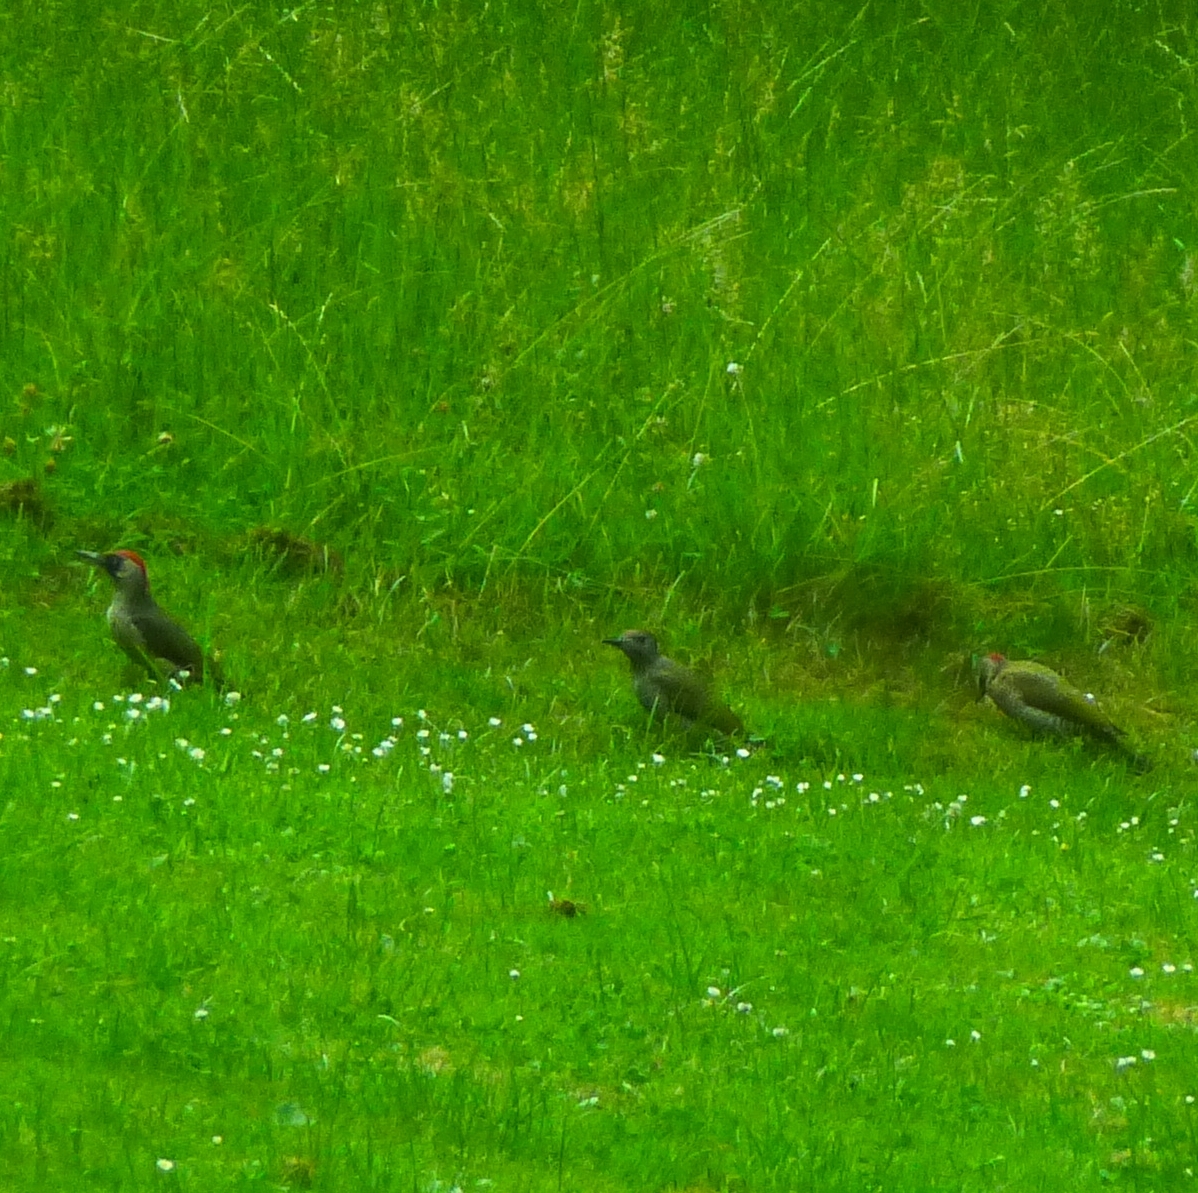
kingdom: Animalia
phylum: Chordata
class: Aves
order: Piciformes
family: Picidae
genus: Picus
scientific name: Picus viridis
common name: European green woodpecker
